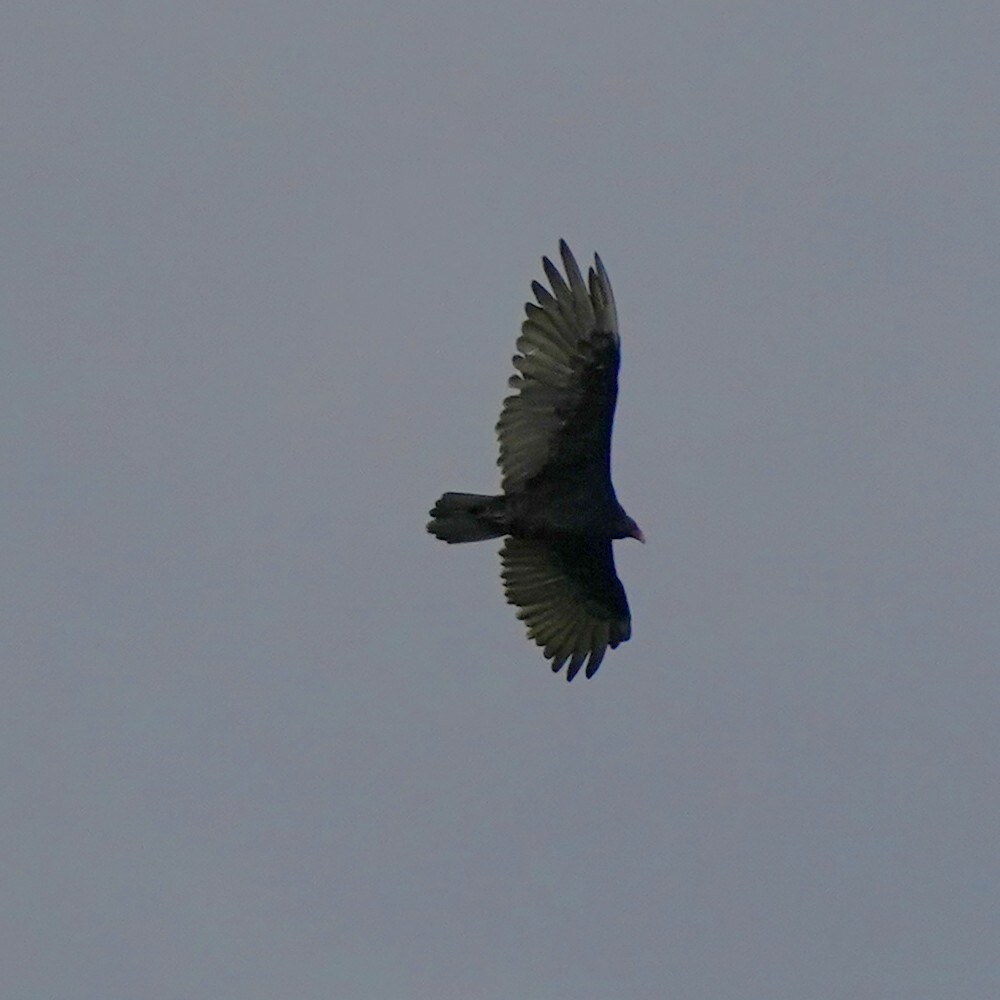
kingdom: Animalia
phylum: Chordata
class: Aves
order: Accipitriformes
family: Cathartidae
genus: Cathartes
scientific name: Cathartes aura
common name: Turkey vulture
